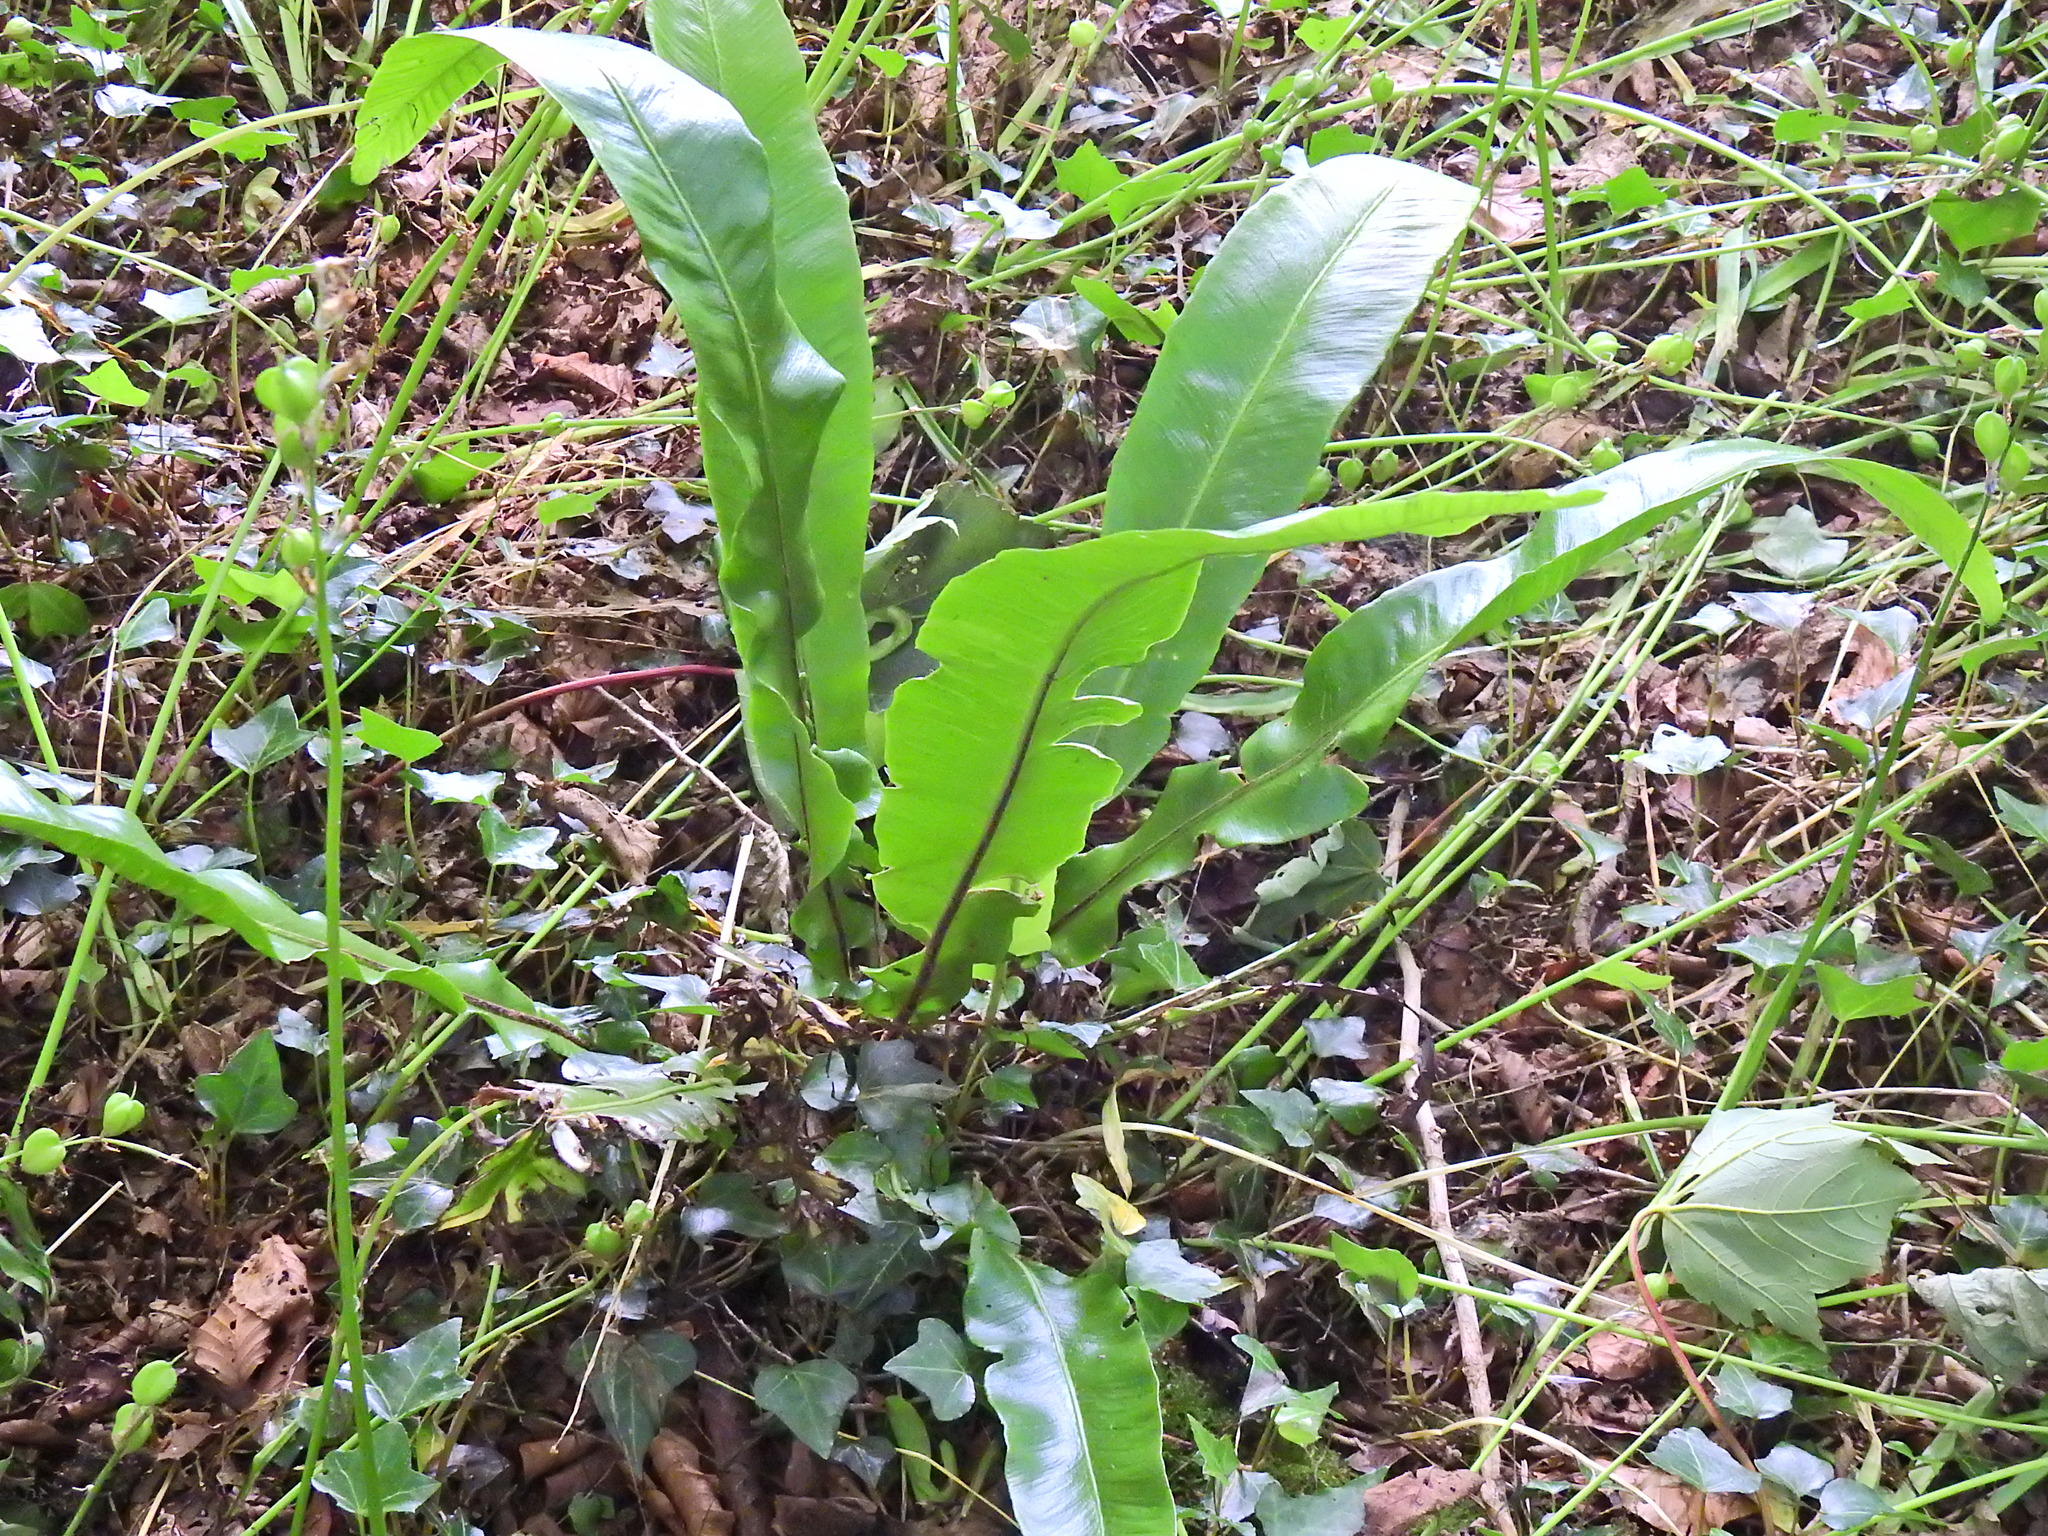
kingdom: Plantae
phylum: Tracheophyta
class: Polypodiopsida
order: Polypodiales
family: Aspleniaceae
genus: Asplenium
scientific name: Asplenium scolopendrium
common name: Hart's-tongue fern
